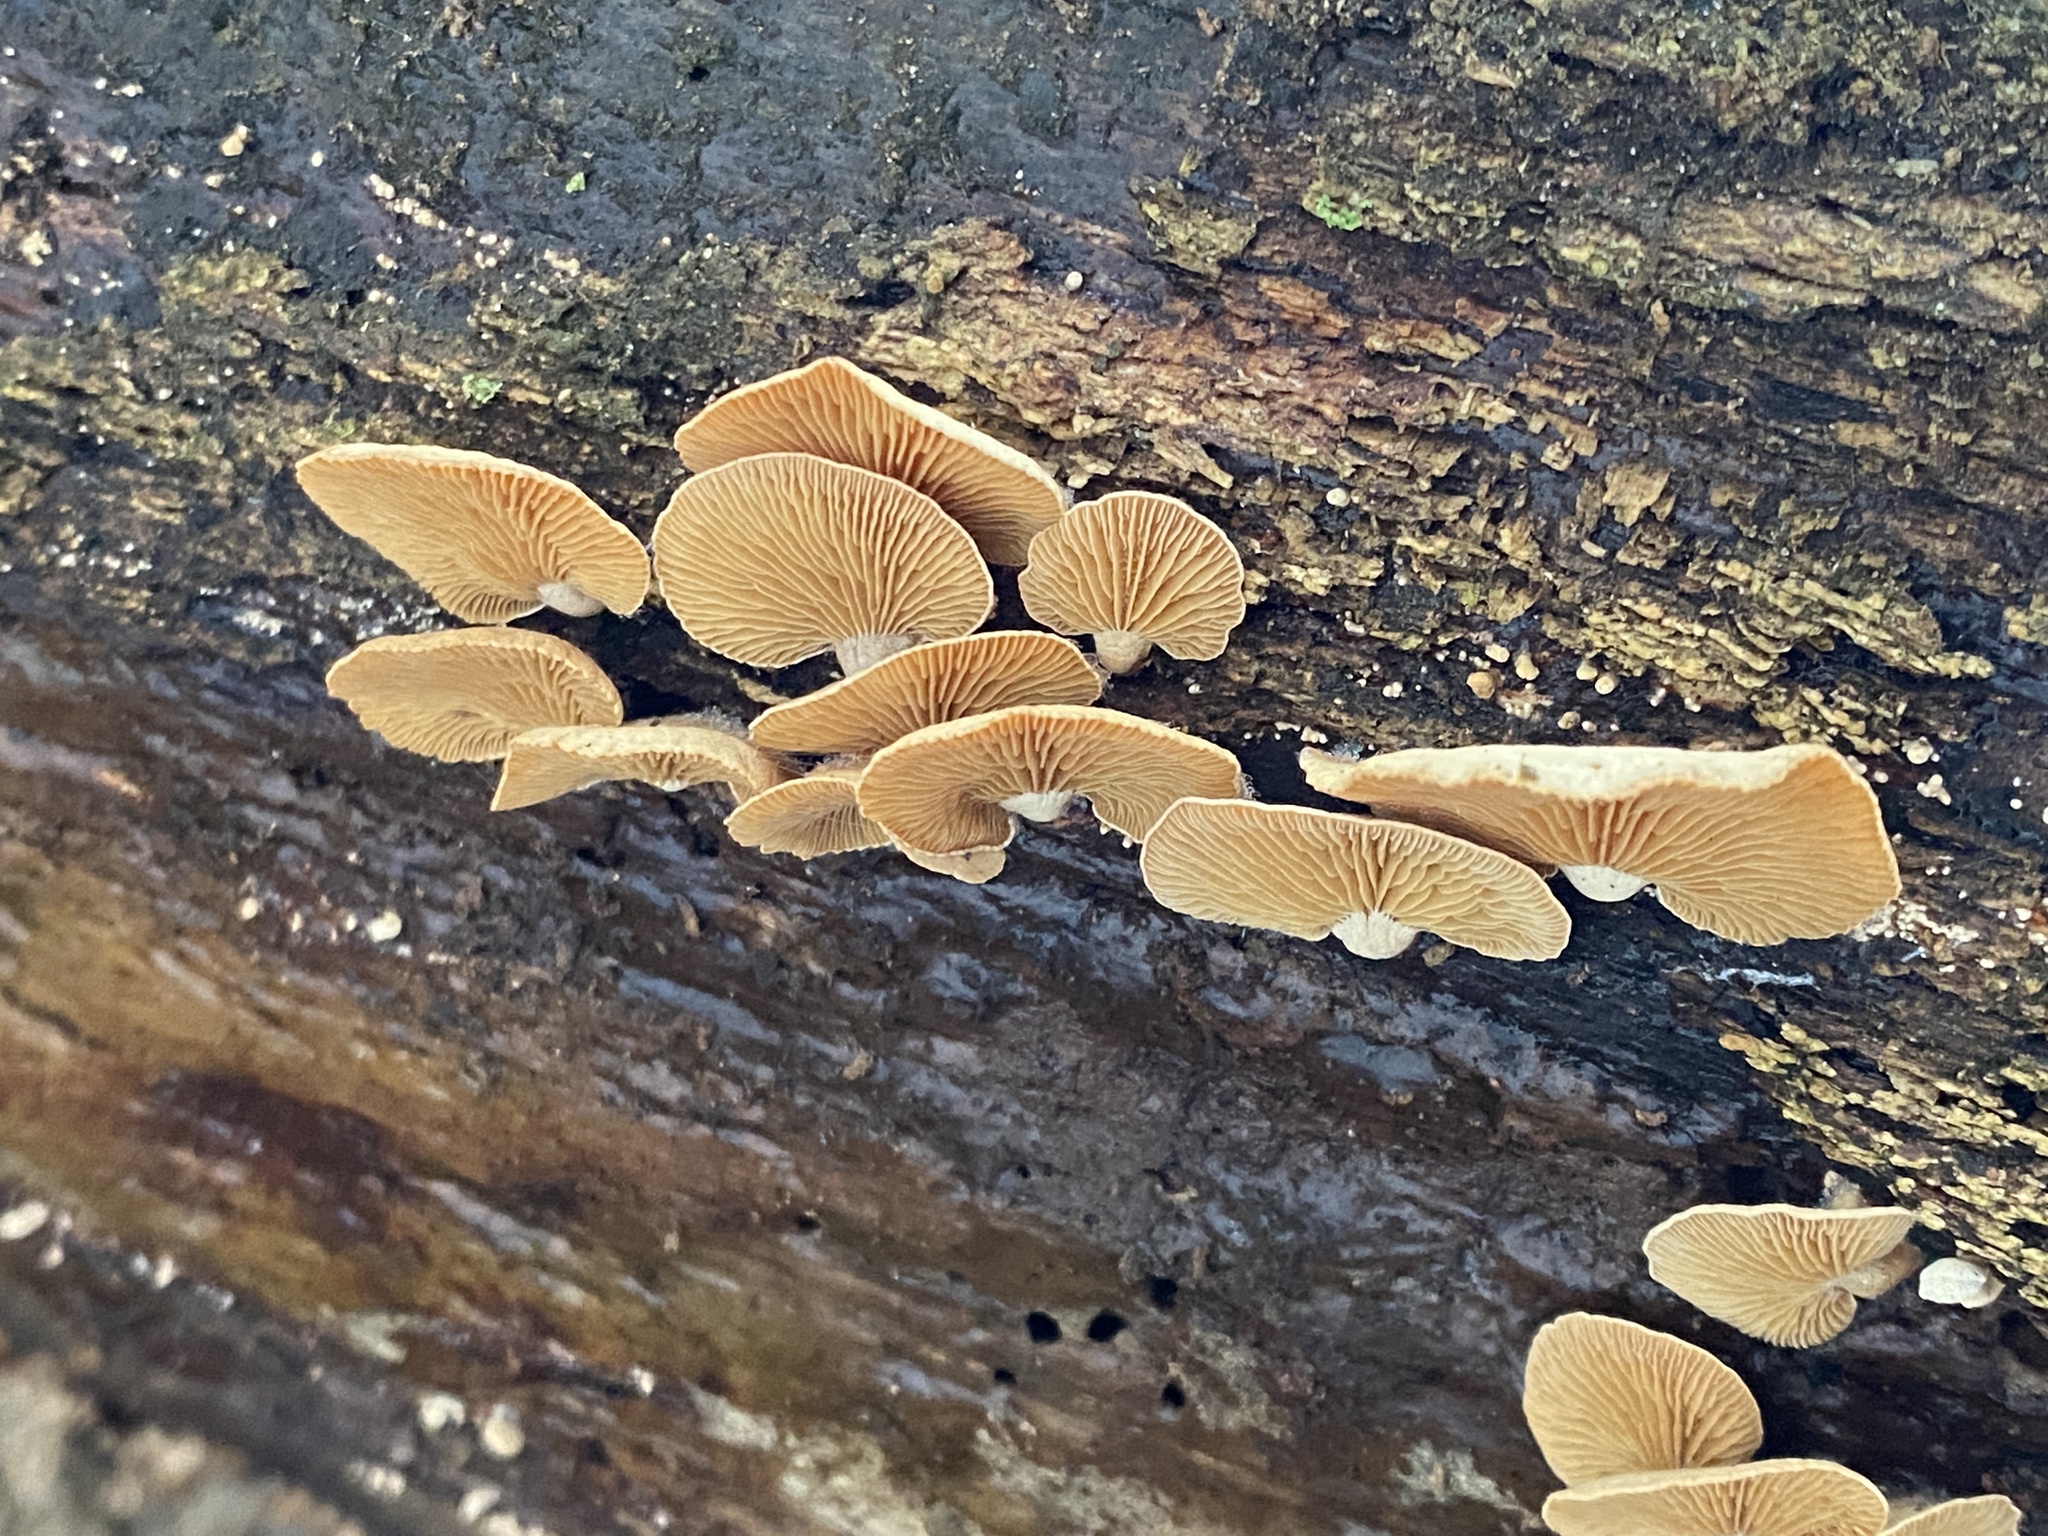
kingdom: Fungi
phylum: Basidiomycota
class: Agaricomycetes
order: Agaricales
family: Mycenaceae
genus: Panellus
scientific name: Panellus stipticus
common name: Bitter oysterling
